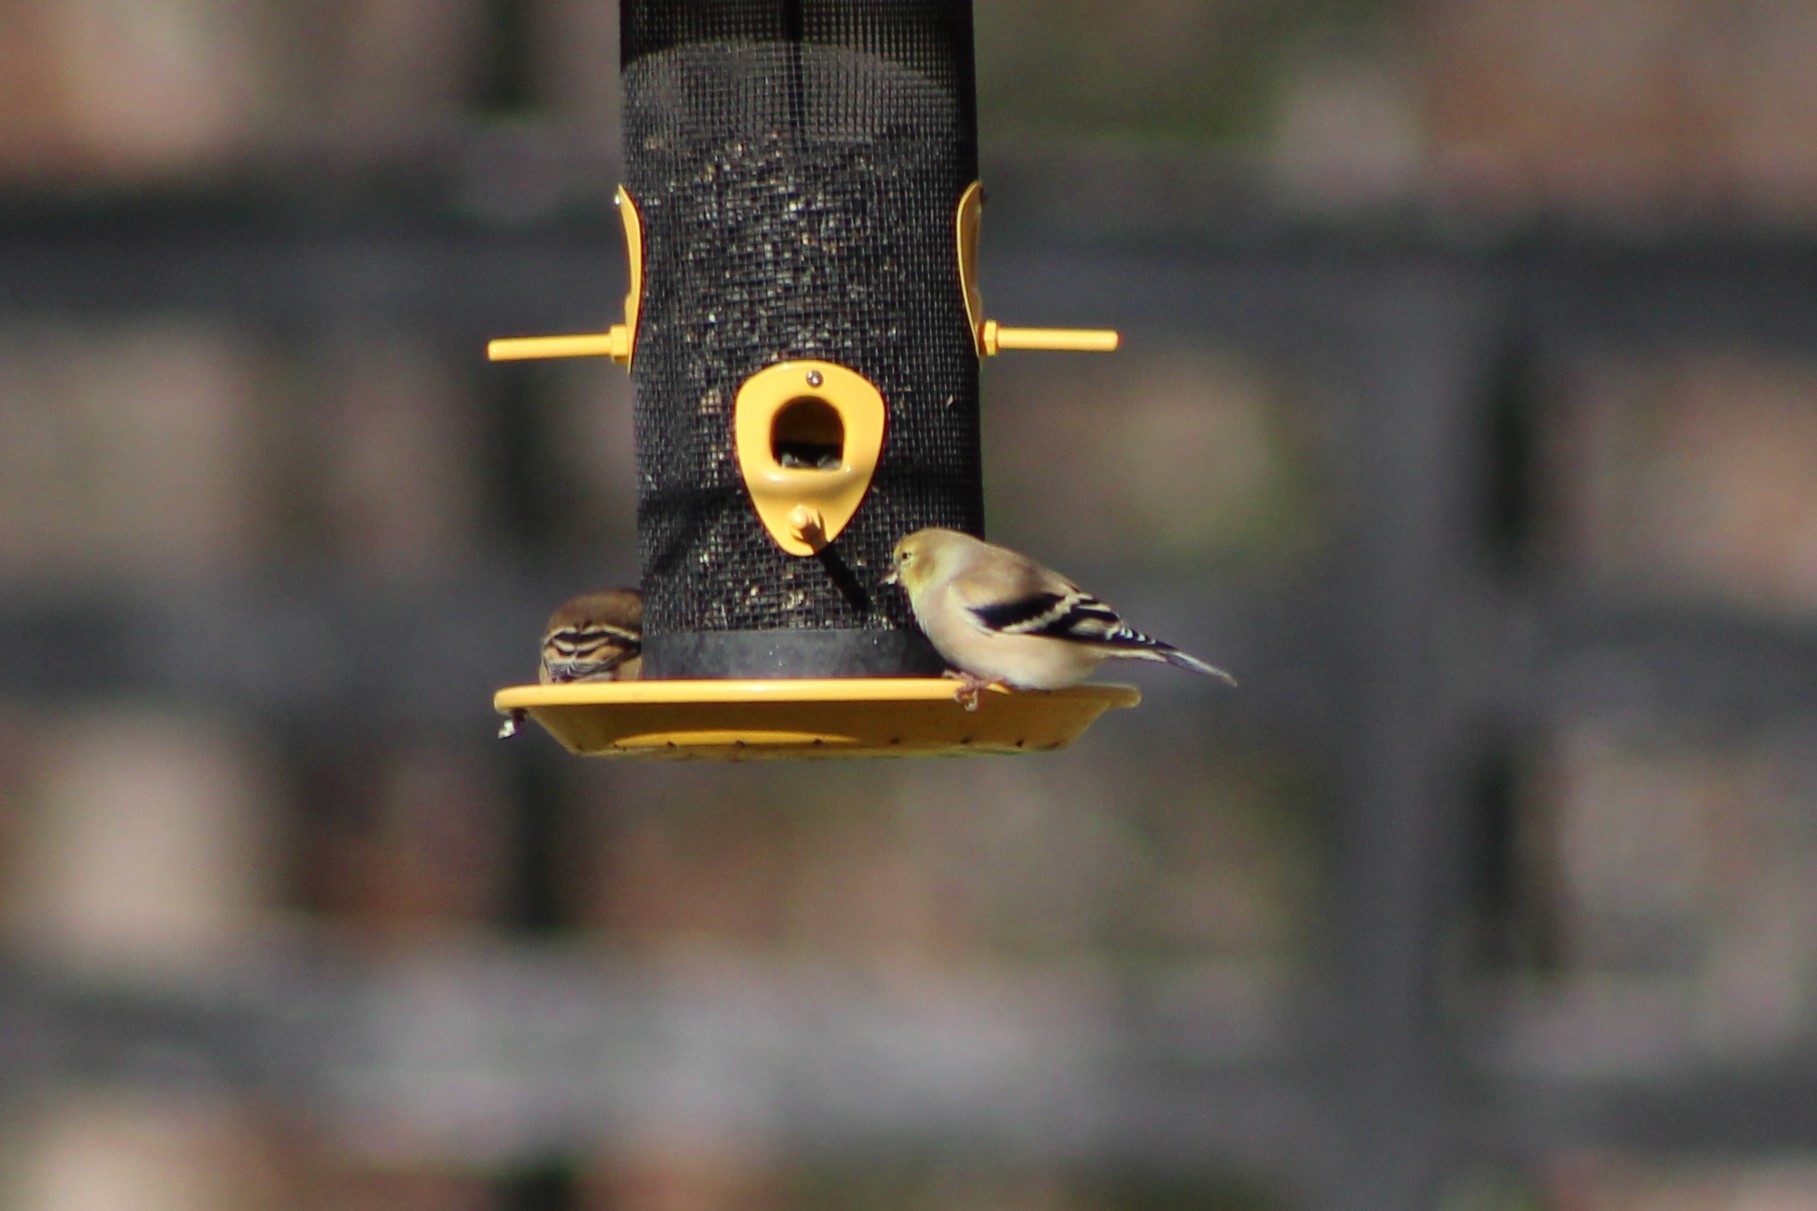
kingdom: Animalia
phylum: Chordata
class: Aves
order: Passeriformes
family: Fringillidae
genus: Spinus
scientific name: Spinus tristis
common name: American goldfinch
